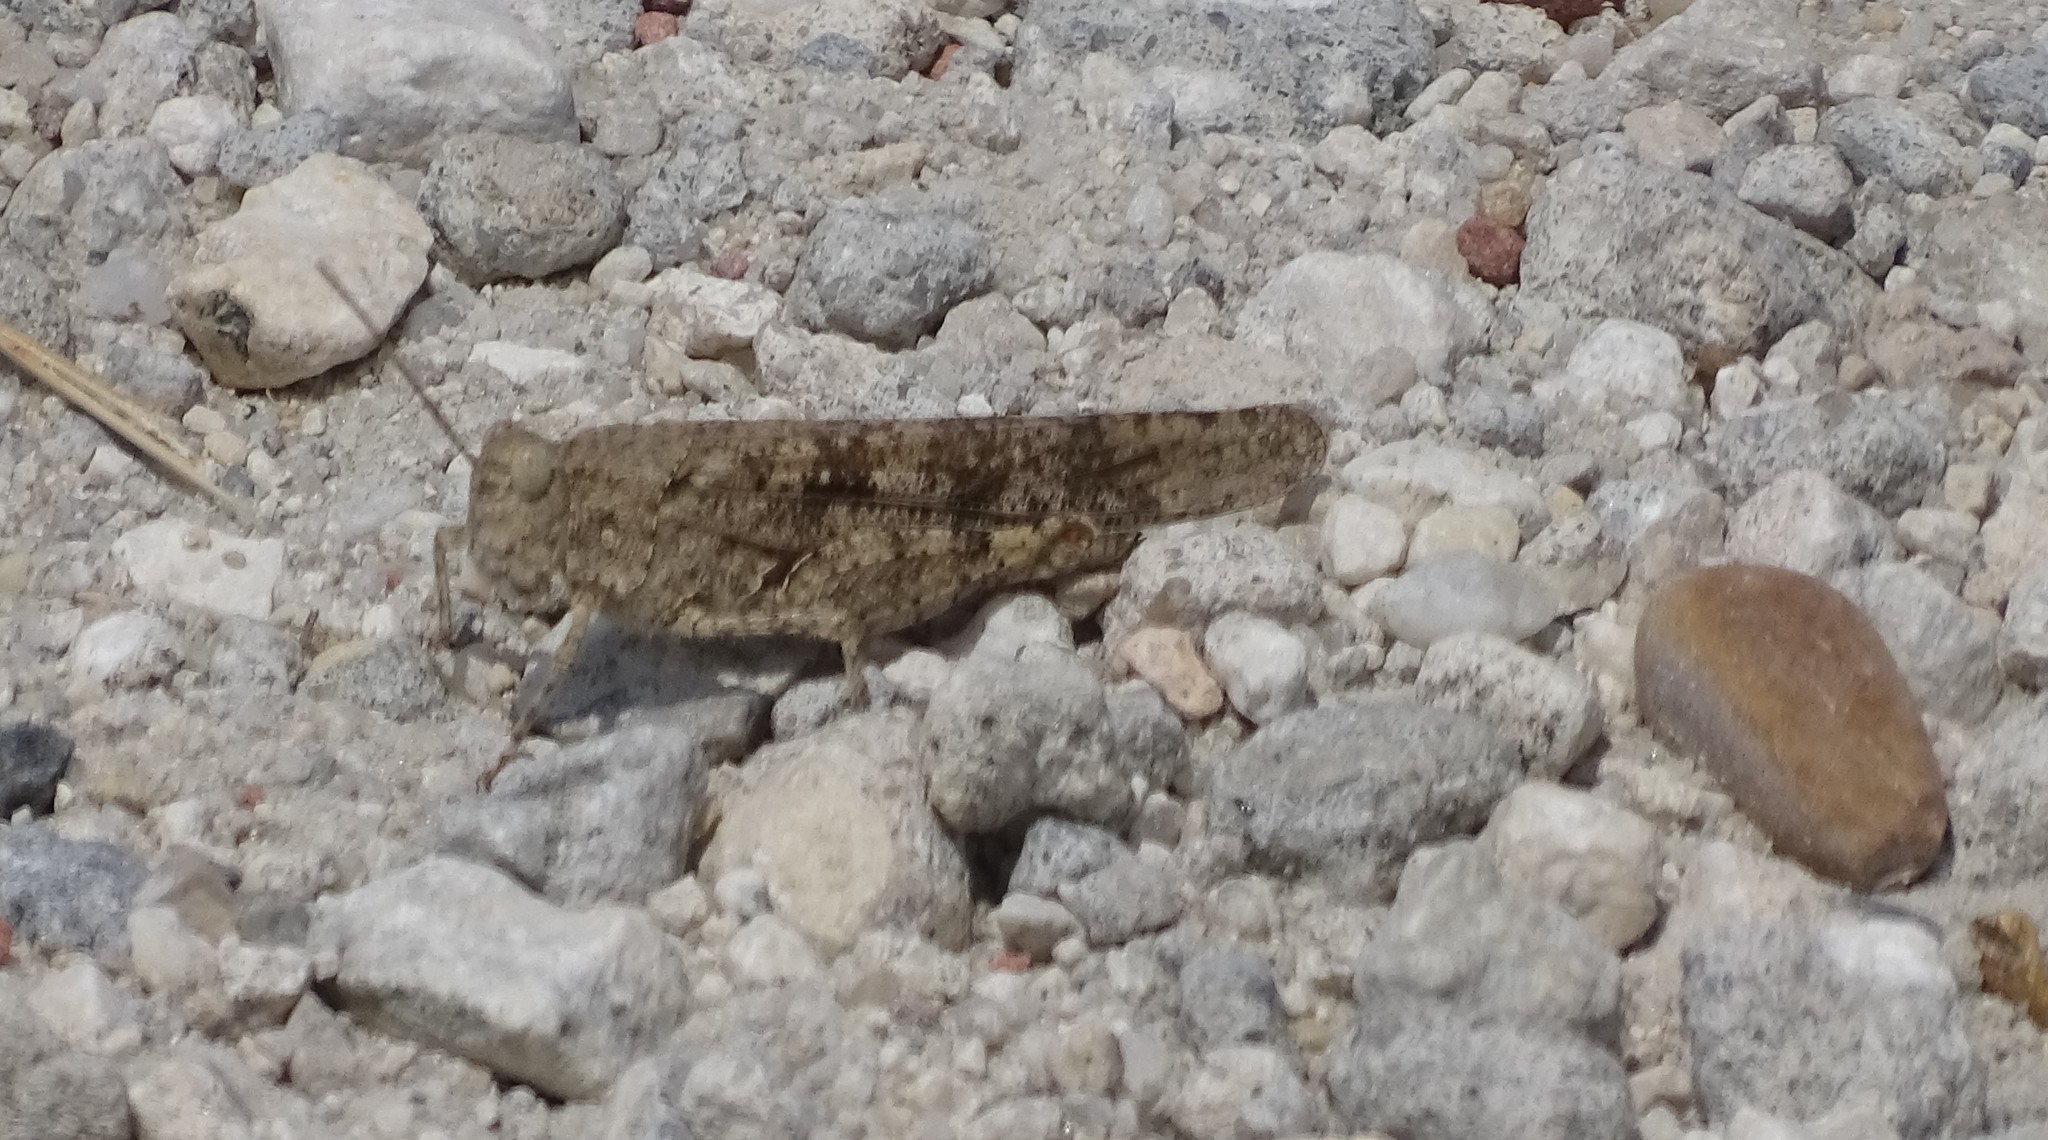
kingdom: Animalia
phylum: Arthropoda
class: Insecta
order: Orthoptera
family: Acrididae
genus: Trimerotropis
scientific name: Trimerotropis maritima
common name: Seaside locust
